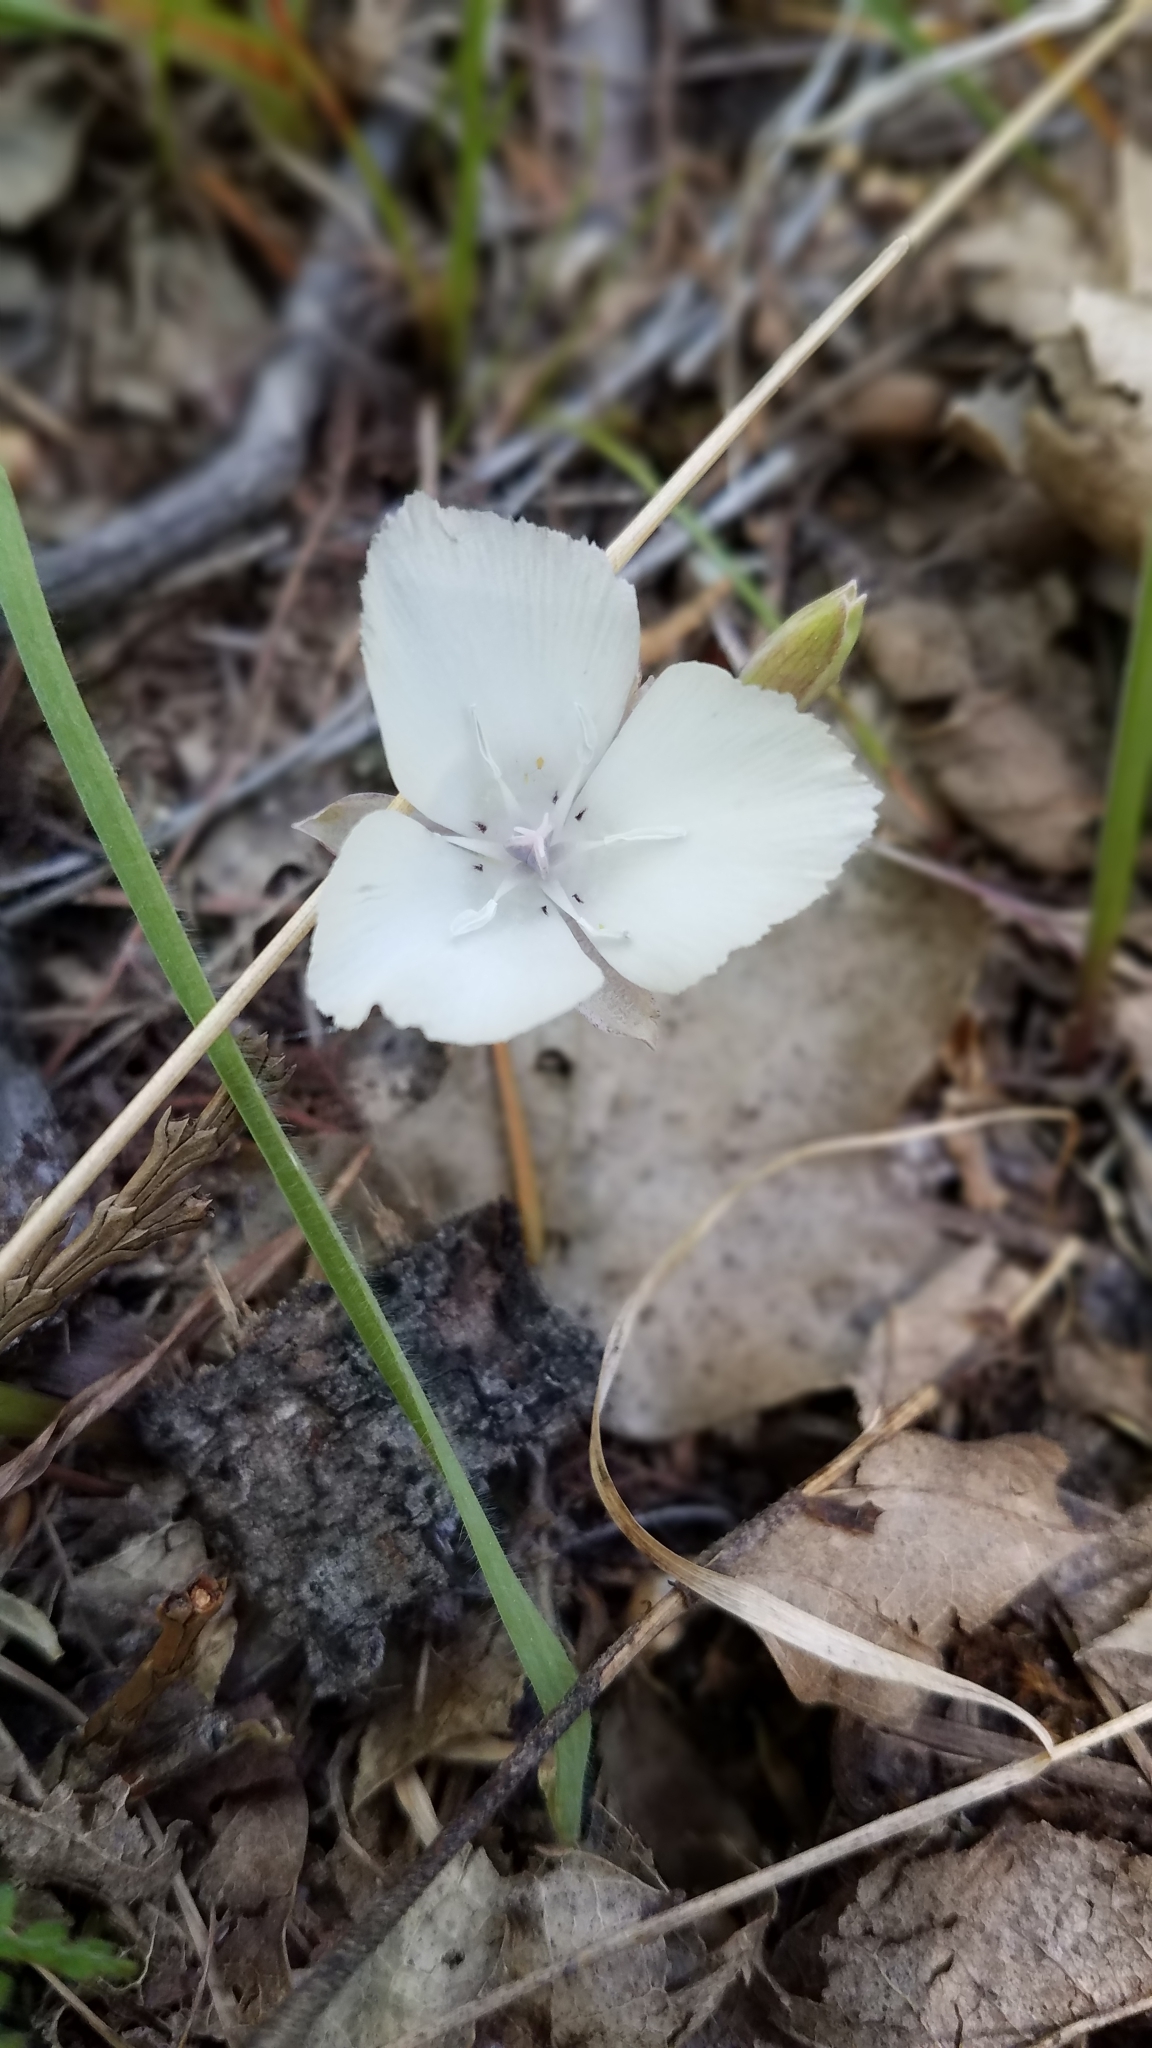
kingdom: Plantae
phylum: Tracheophyta
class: Liliopsida
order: Liliales
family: Liliaceae
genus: Calochortus
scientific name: Calochortus minimus
